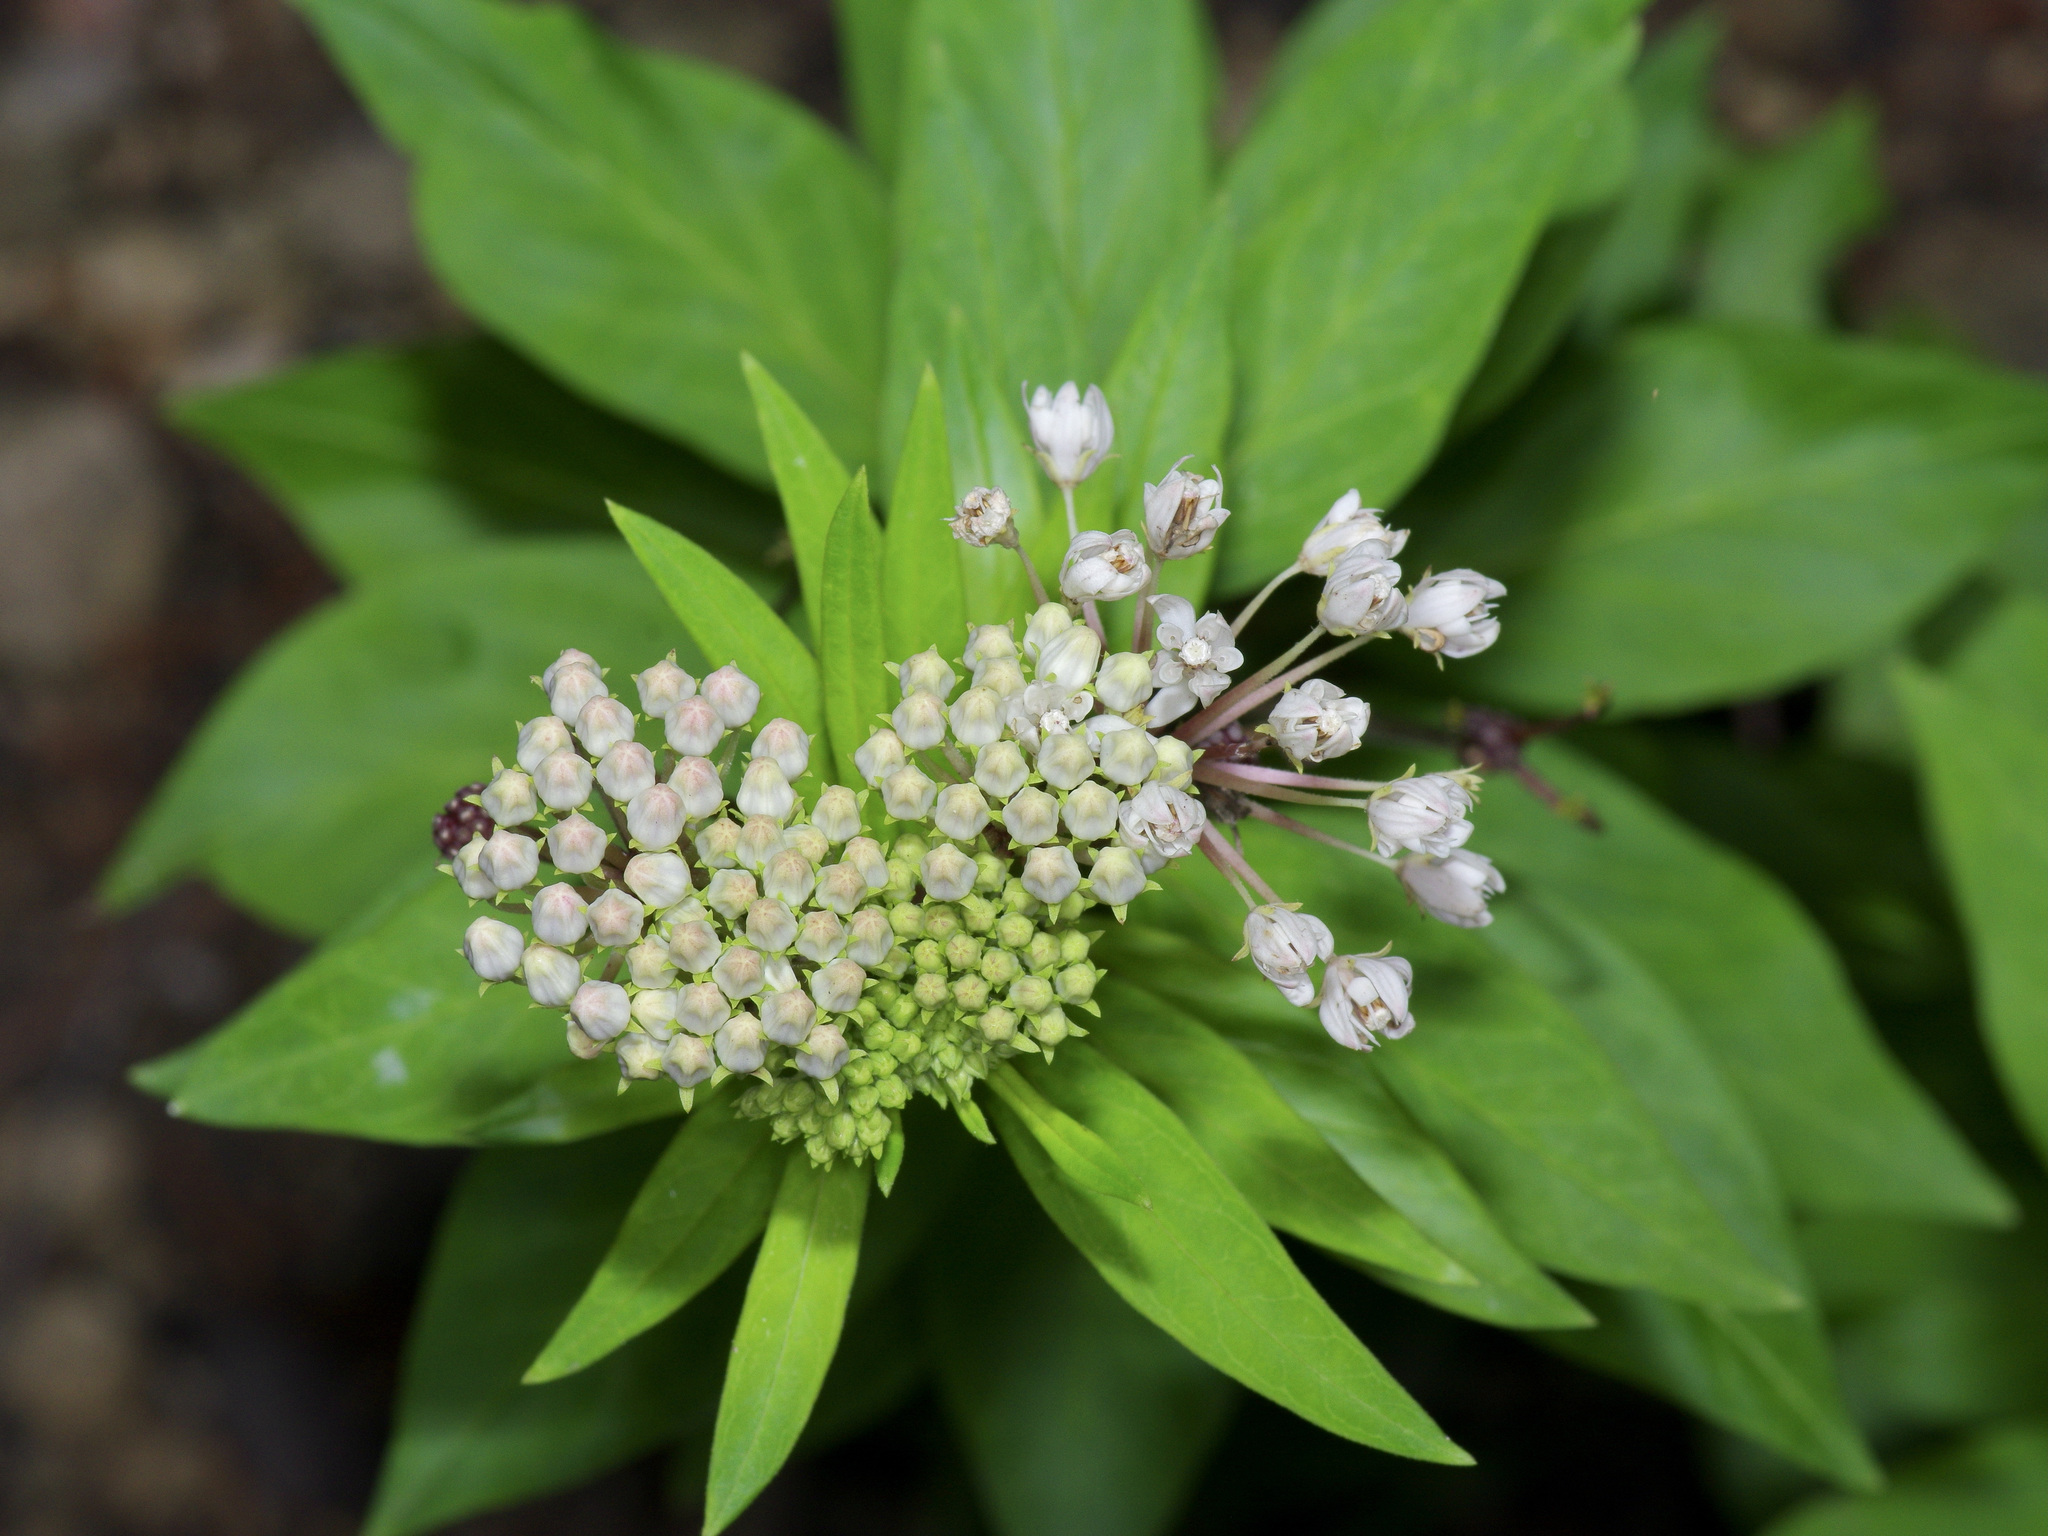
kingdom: Plantae
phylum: Tracheophyta
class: Magnoliopsida
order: Gentianales
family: Apocynaceae
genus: Asclepias
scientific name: Asclepias texana
